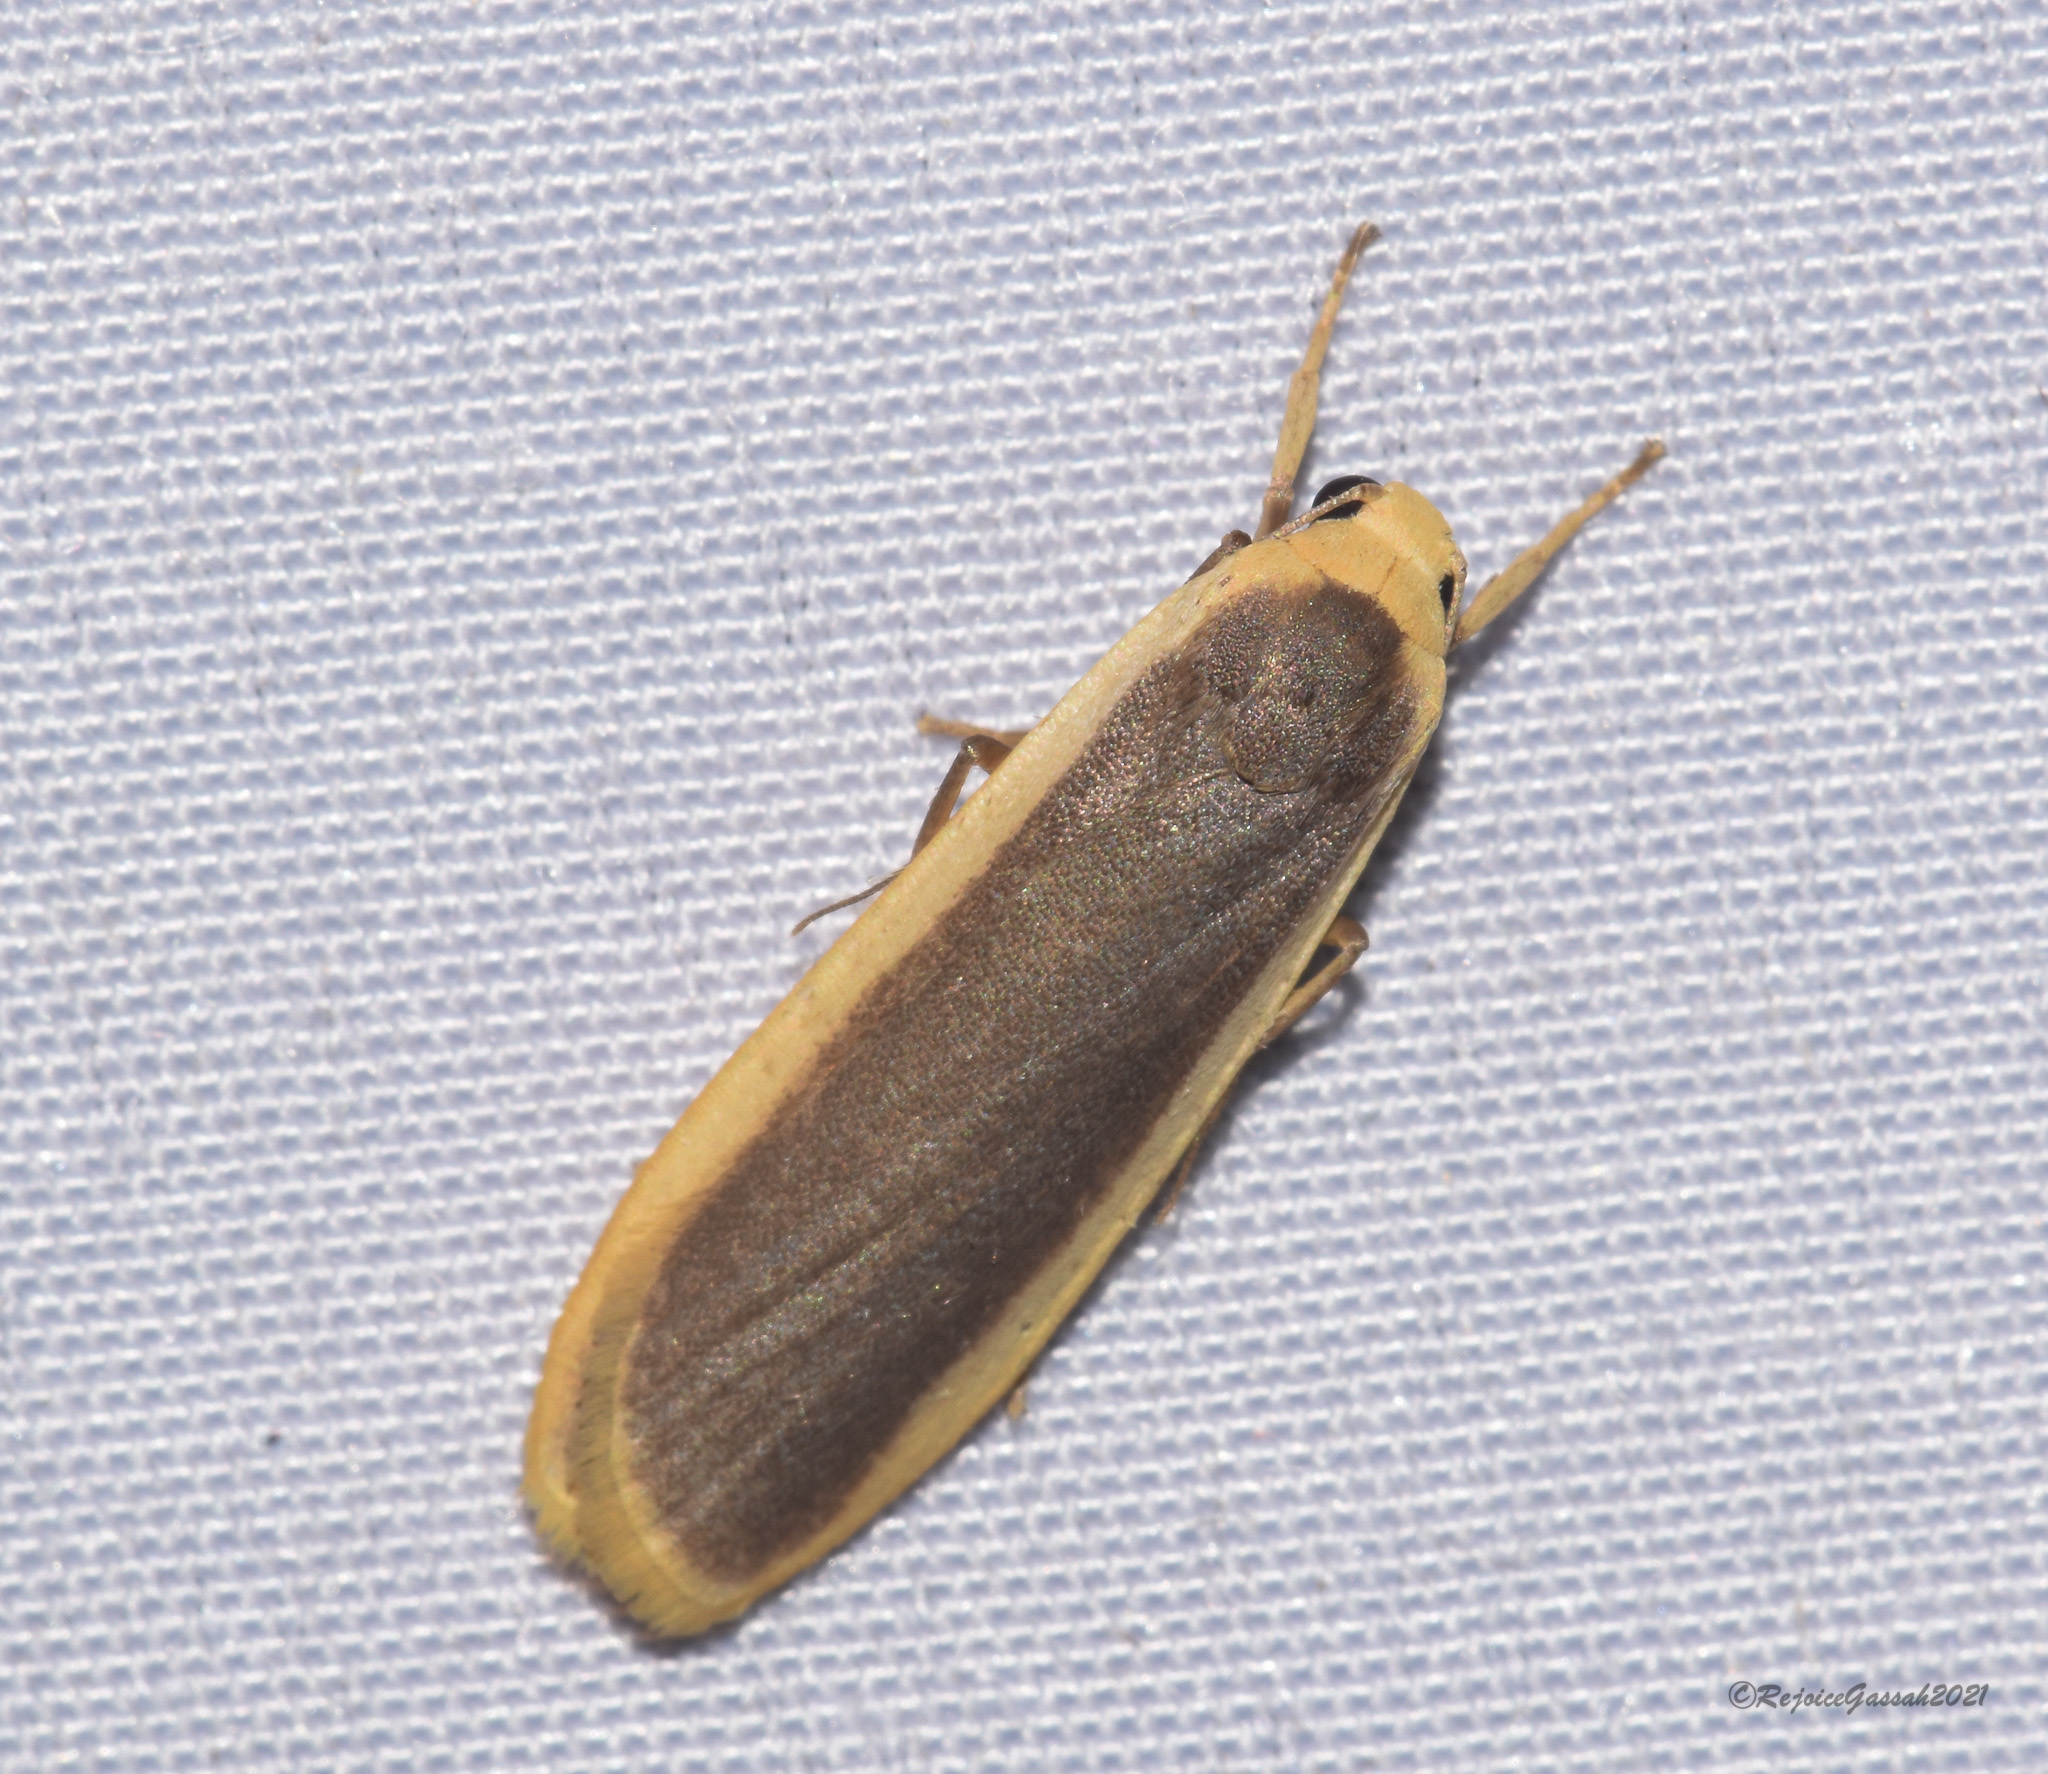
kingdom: Animalia
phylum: Arthropoda
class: Insecta
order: Lepidoptera
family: Erebidae
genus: Brunia
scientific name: Brunia antica
